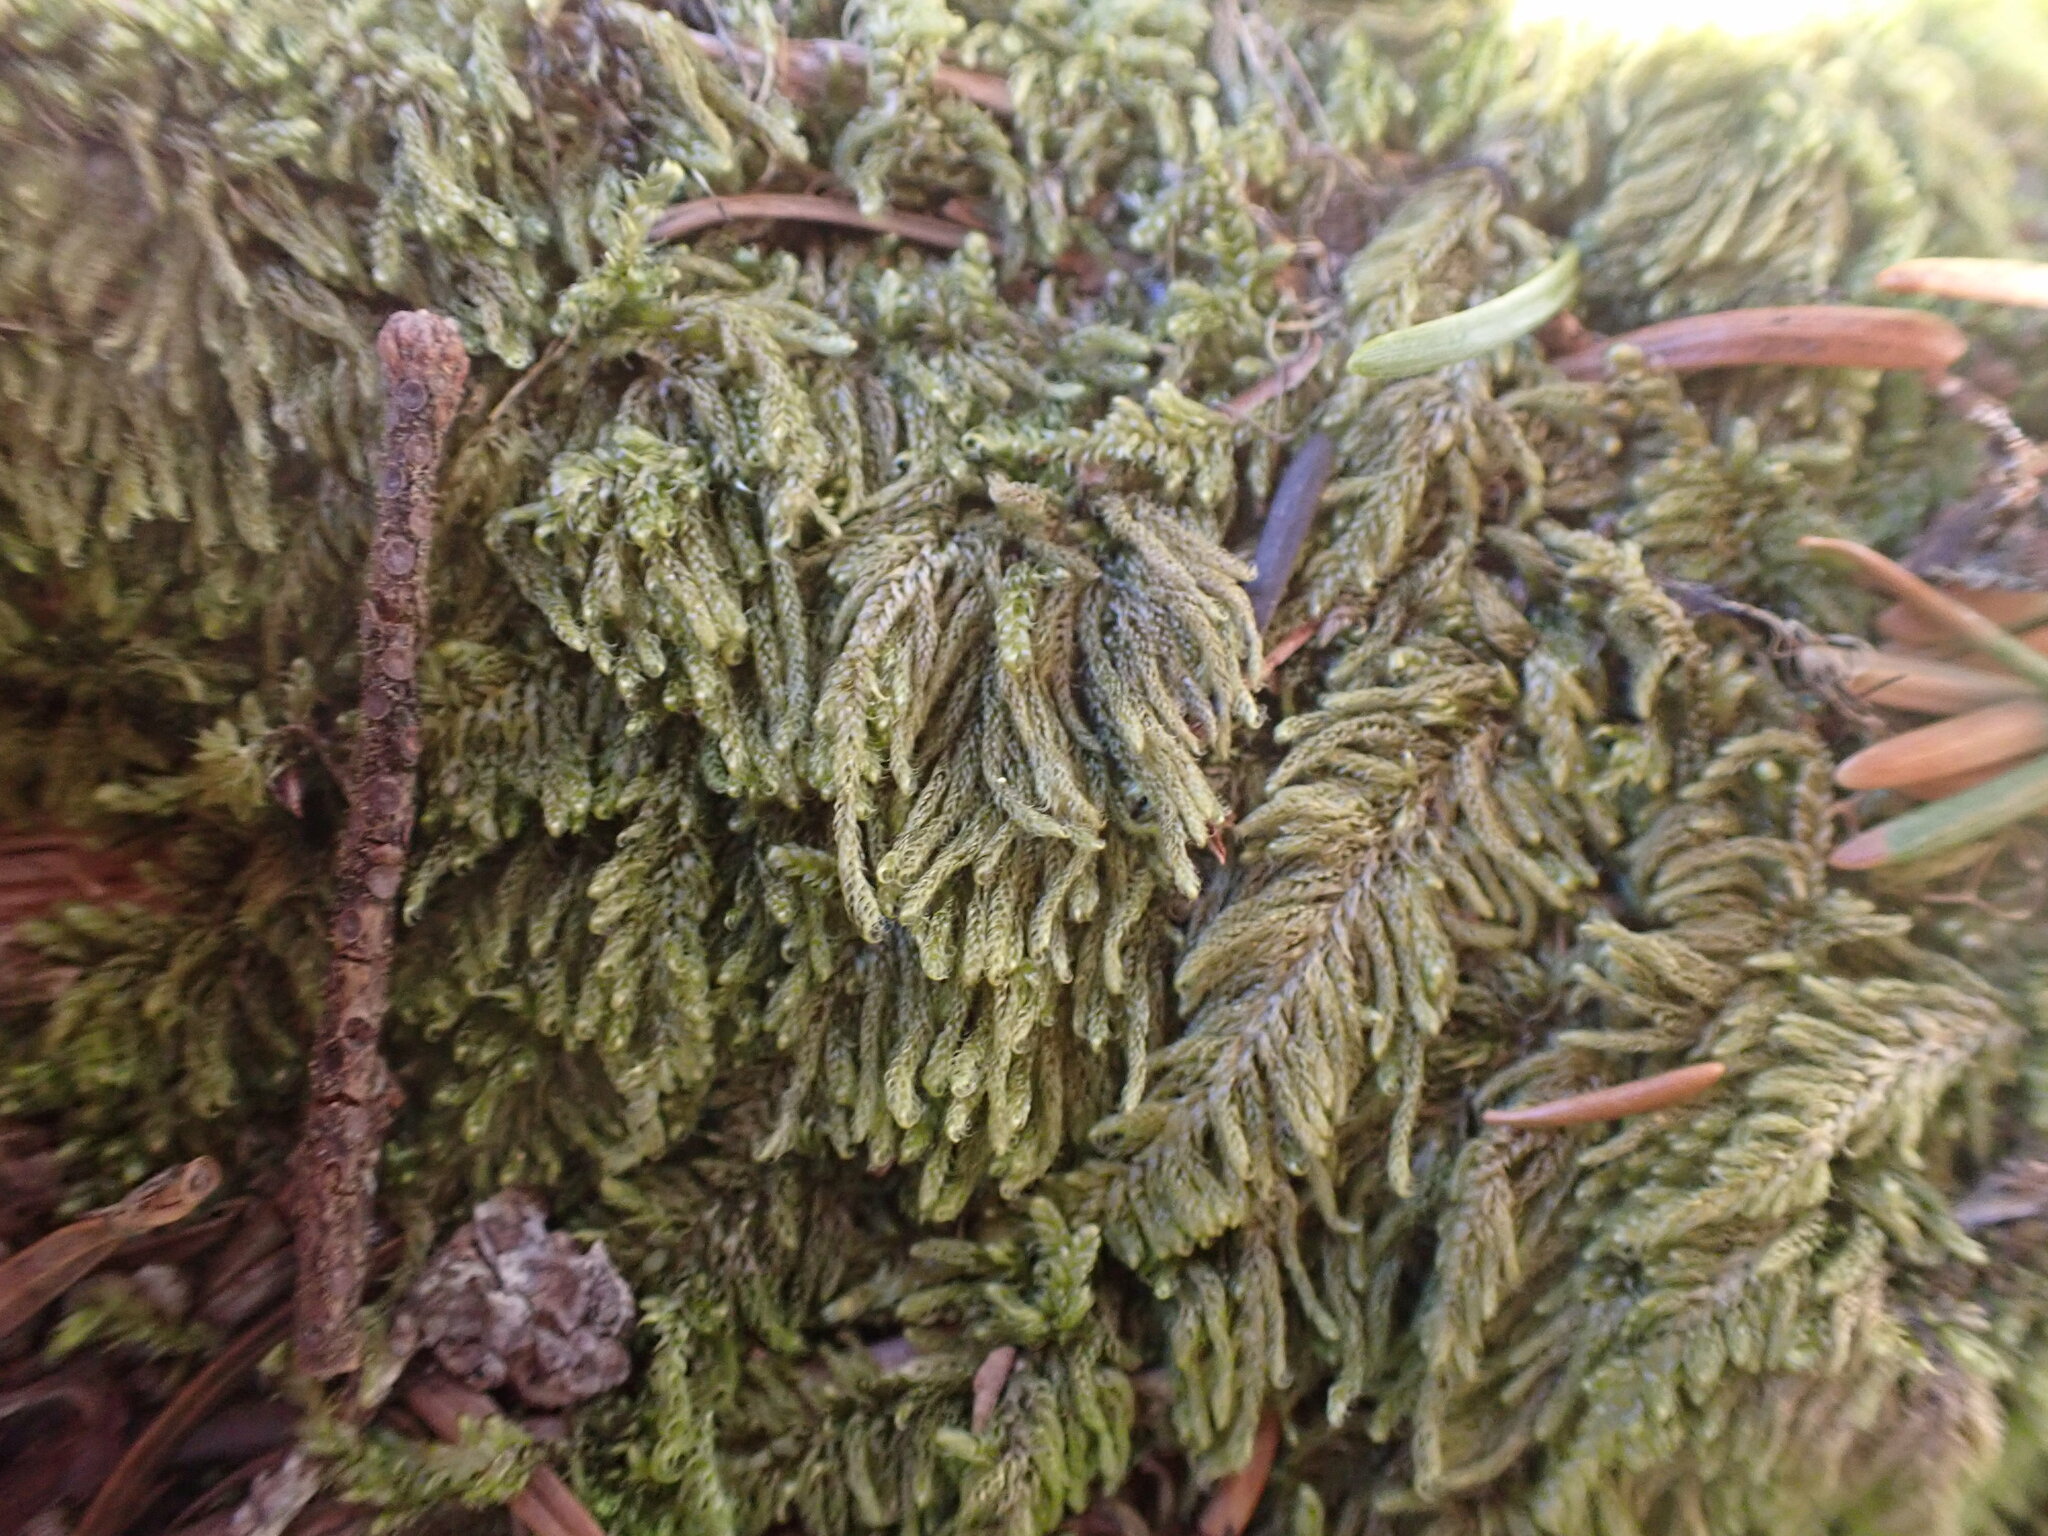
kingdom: Plantae
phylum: Bryophyta
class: Bryopsida
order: Hypnales
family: Pylaisiadelphaceae
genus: Trochophyllohypnum
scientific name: Trochophyllohypnum circinale
